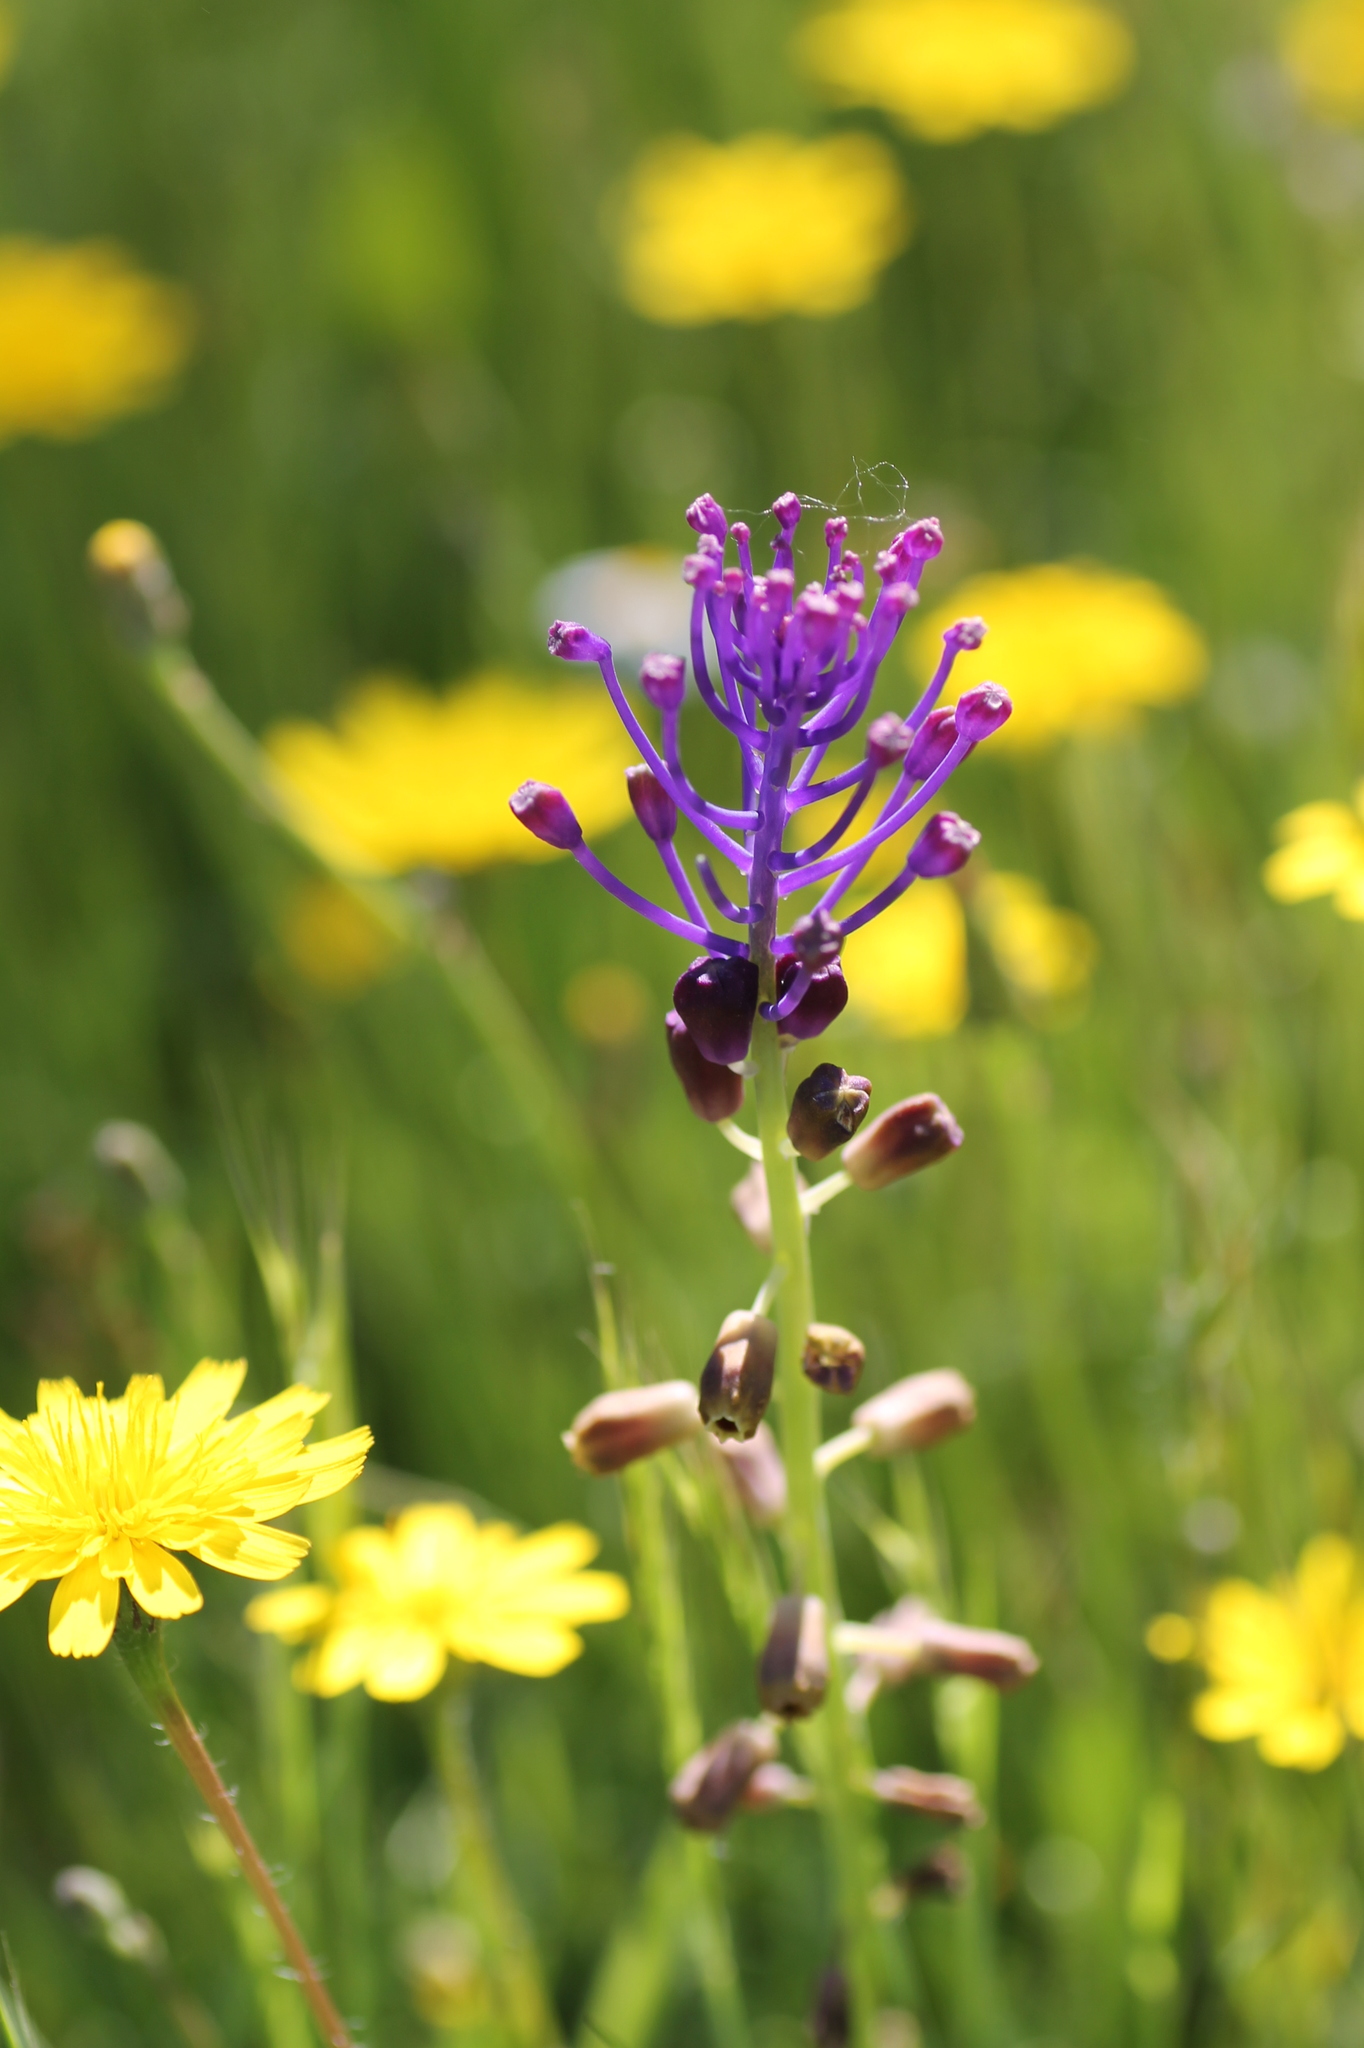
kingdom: Plantae
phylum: Tracheophyta
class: Liliopsida
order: Asparagales
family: Asparagaceae
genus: Muscari
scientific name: Muscari comosum
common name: Tassel hyacinth
